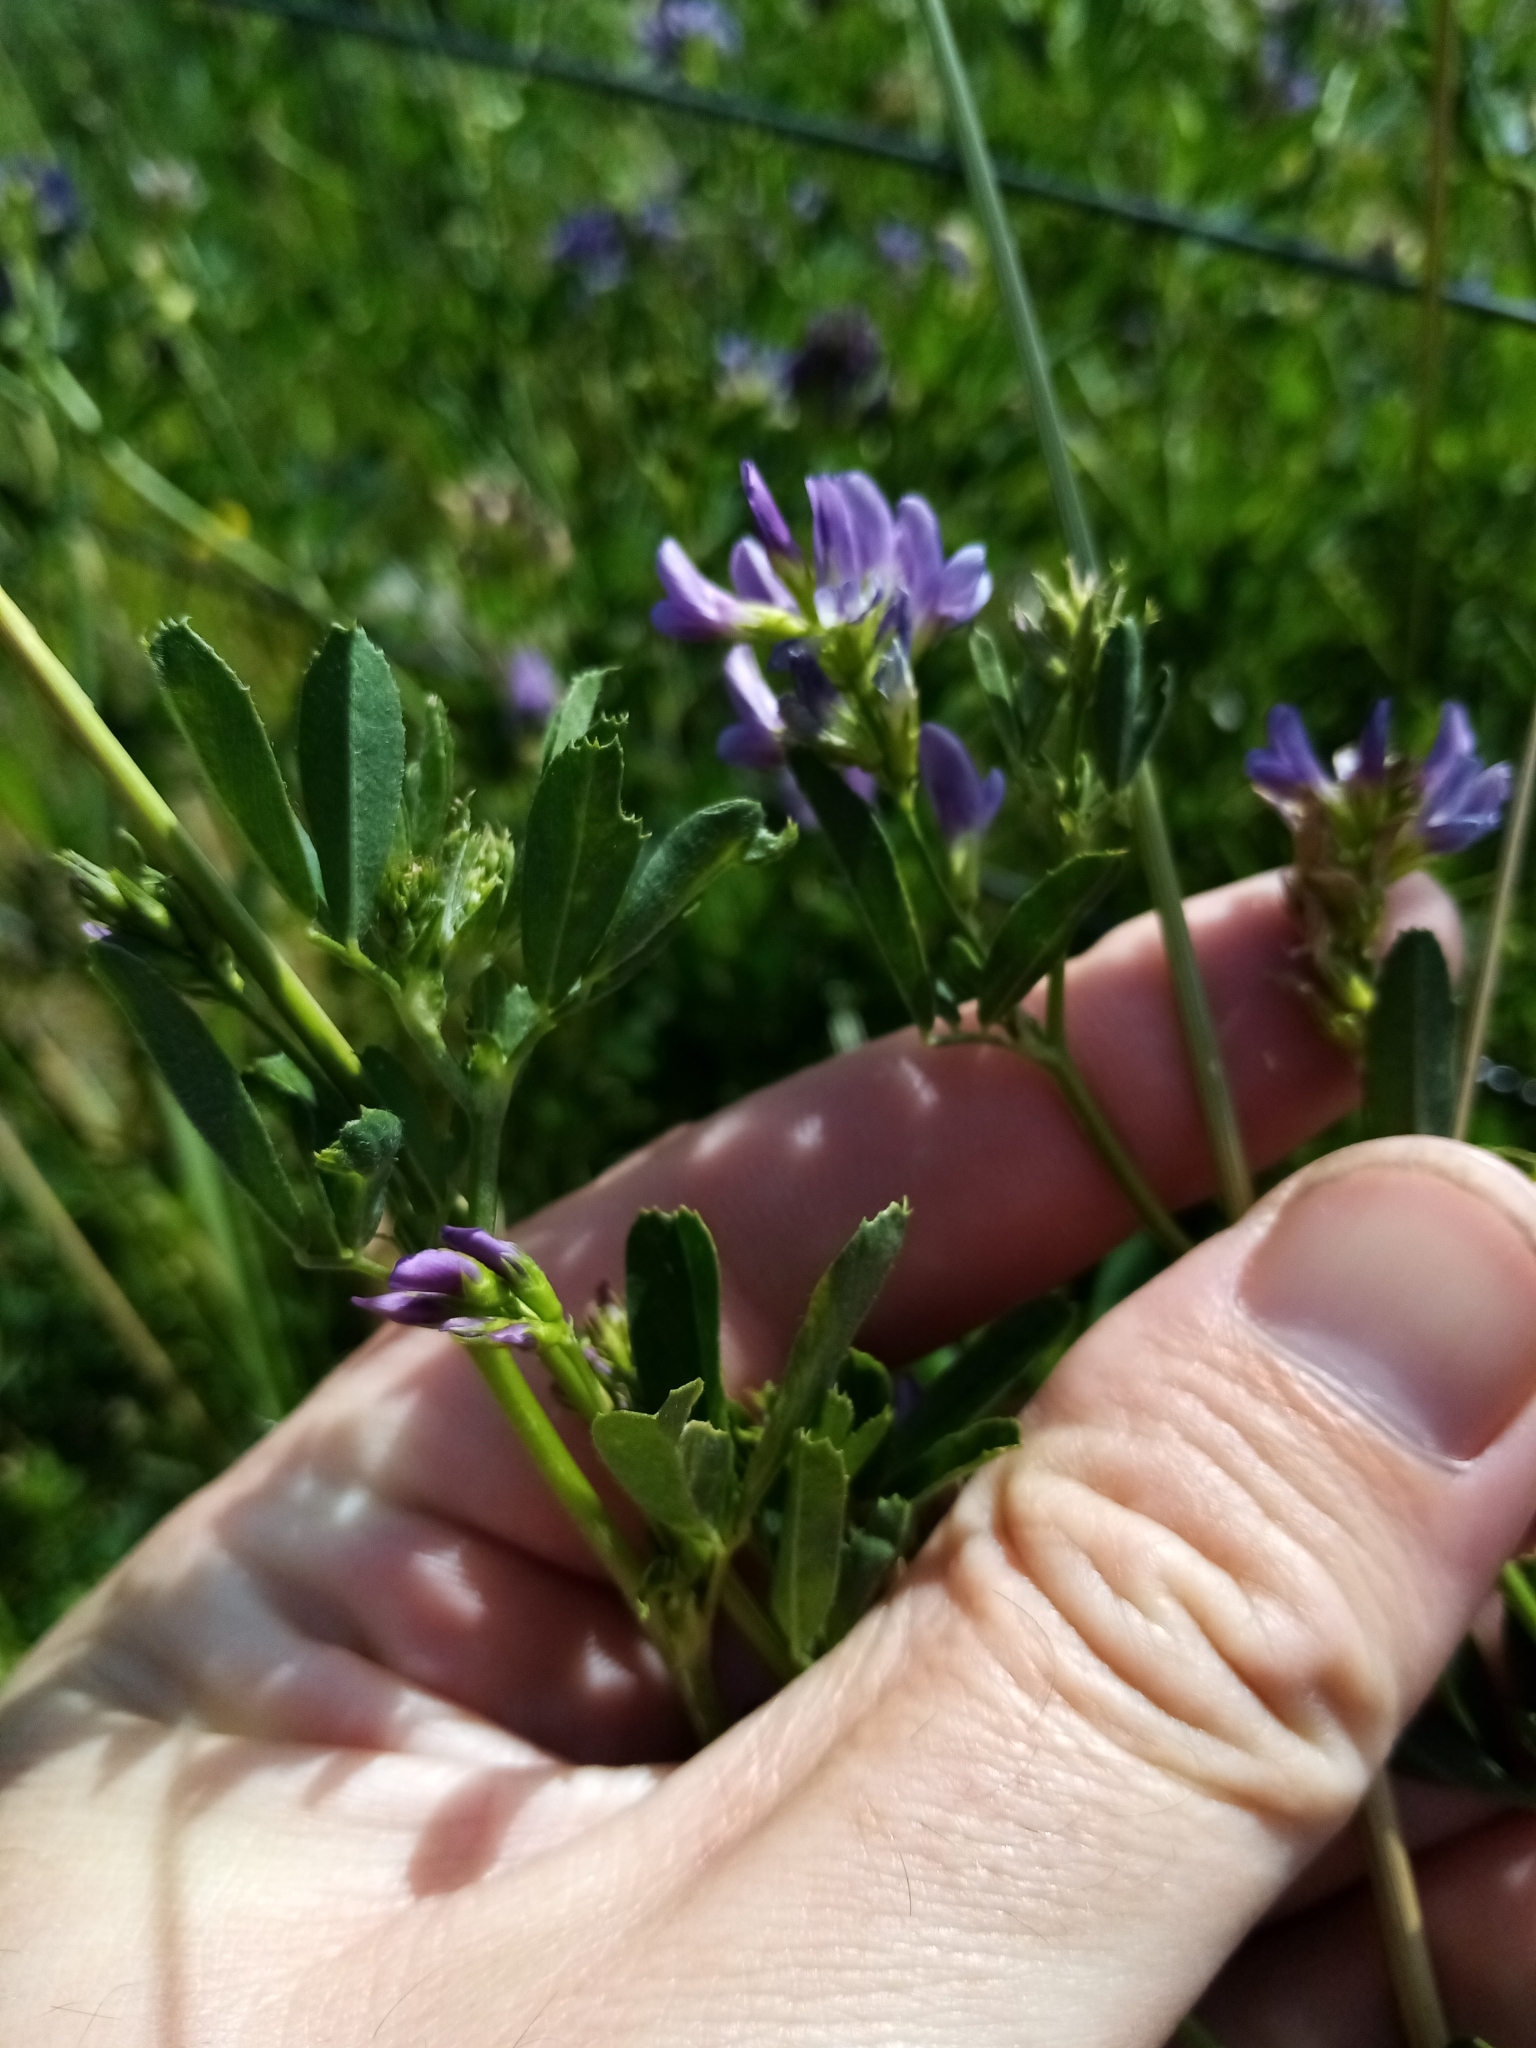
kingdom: Plantae
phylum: Tracheophyta
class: Magnoliopsida
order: Fabales
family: Fabaceae
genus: Medicago
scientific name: Medicago sativa
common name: Alfalfa
